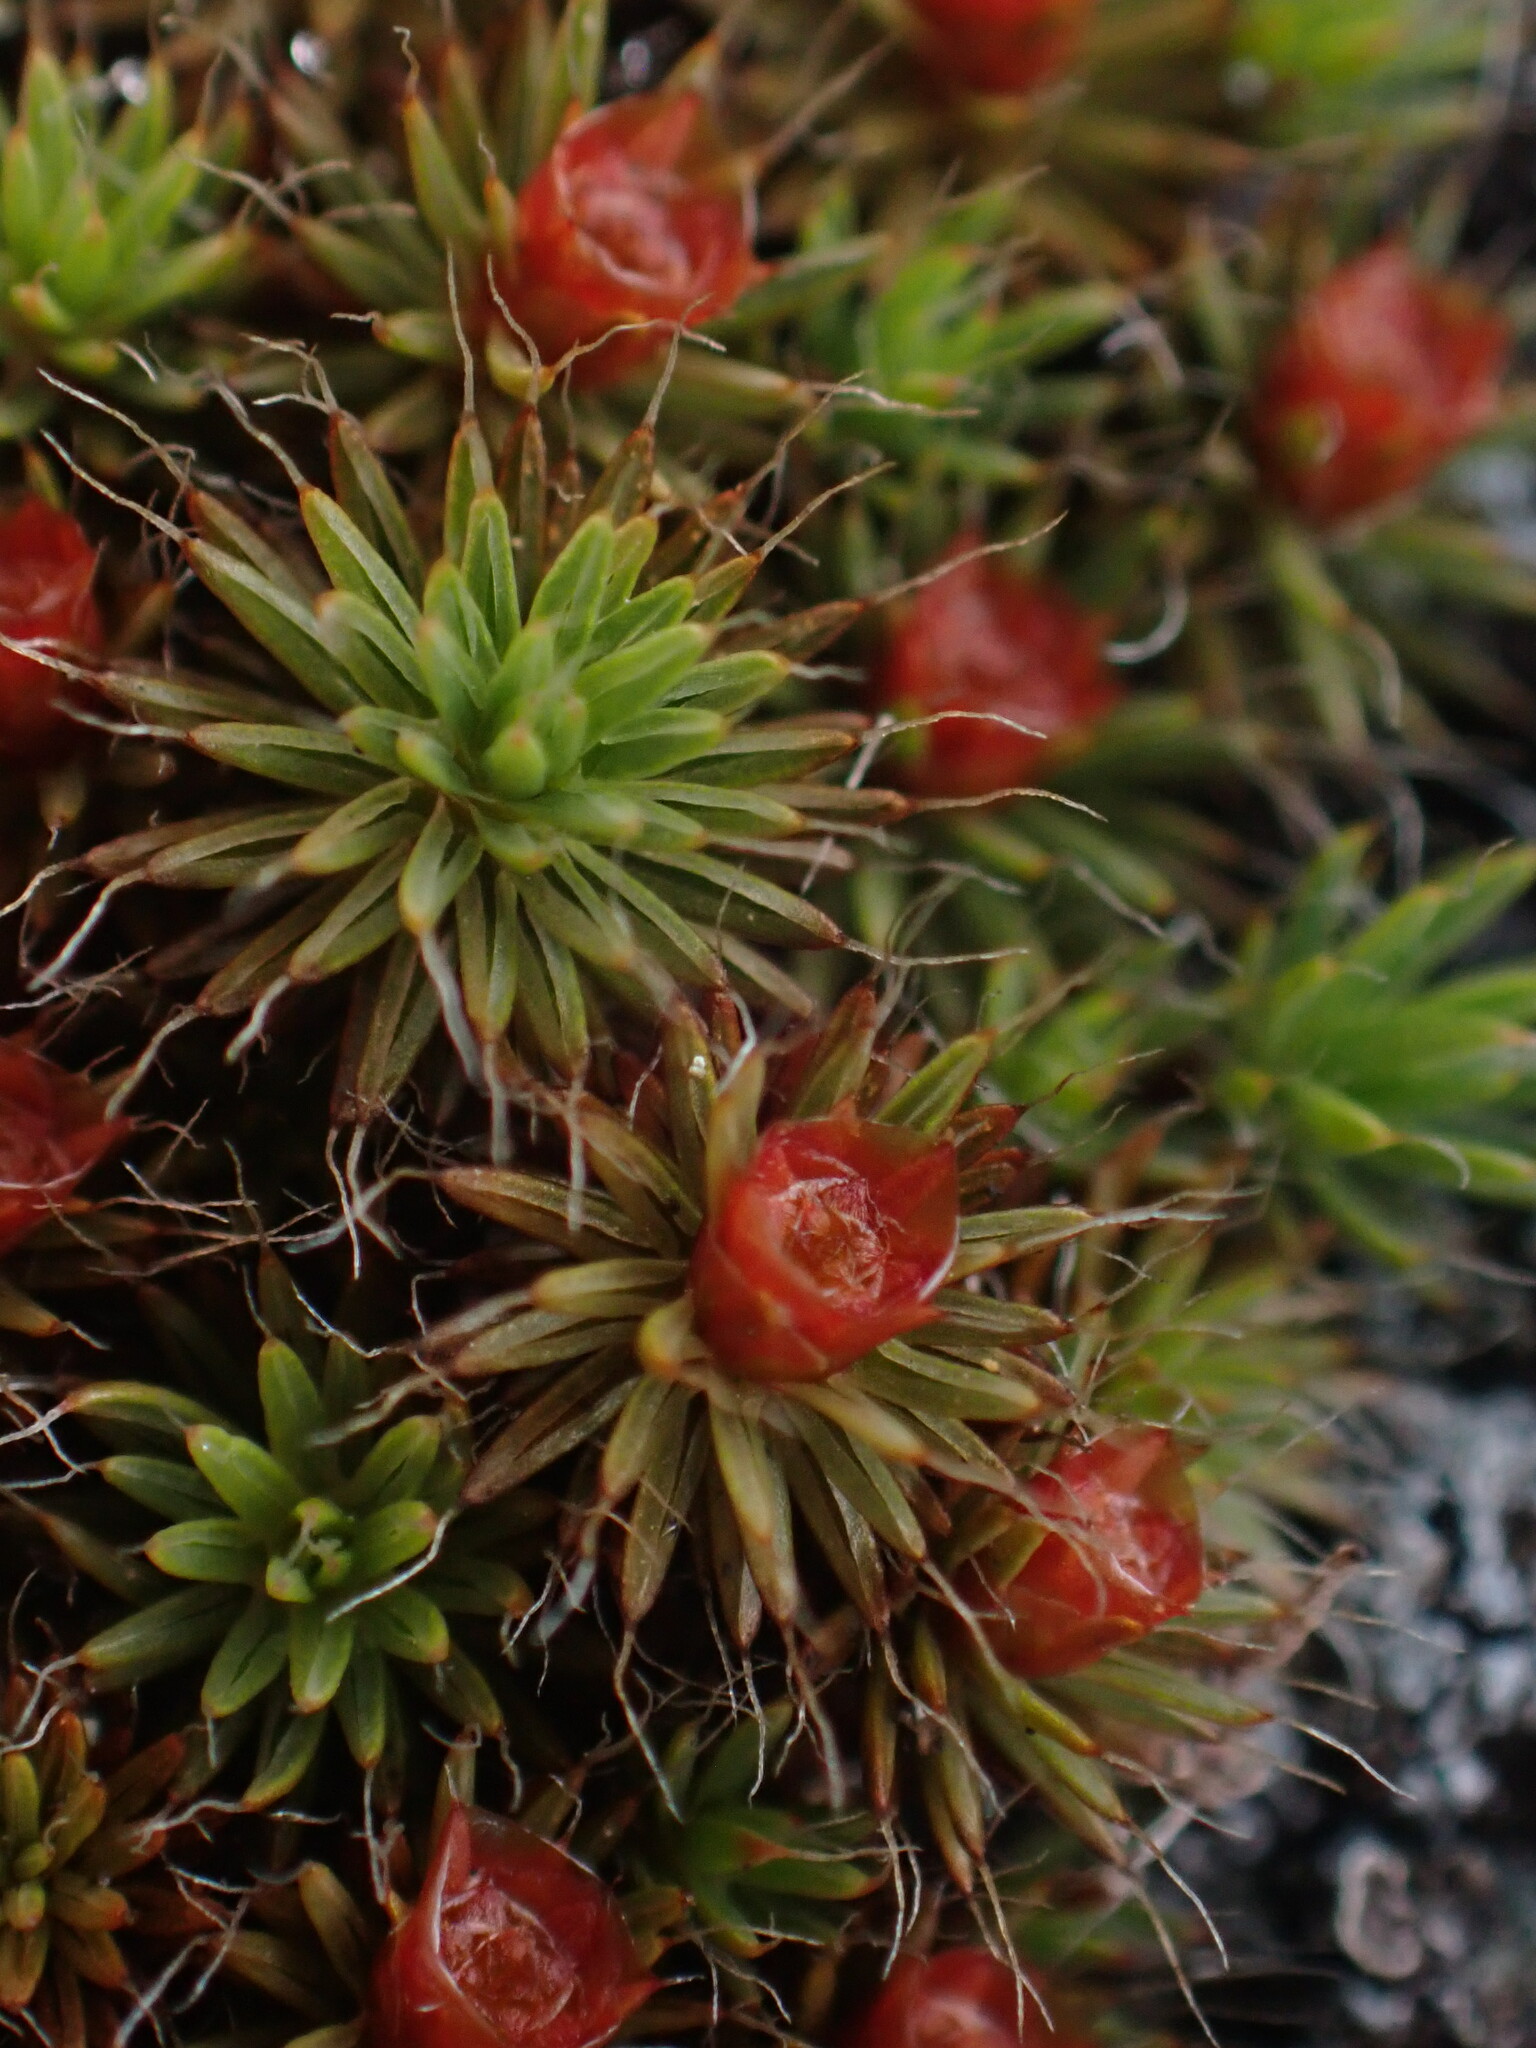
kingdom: Plantae
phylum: Bryophyta
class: Polytrichopsida
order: Polytrichales
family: Polytrichaceae
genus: Polytrichum
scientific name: Polytrichum piliferum
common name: Bristly haircap
